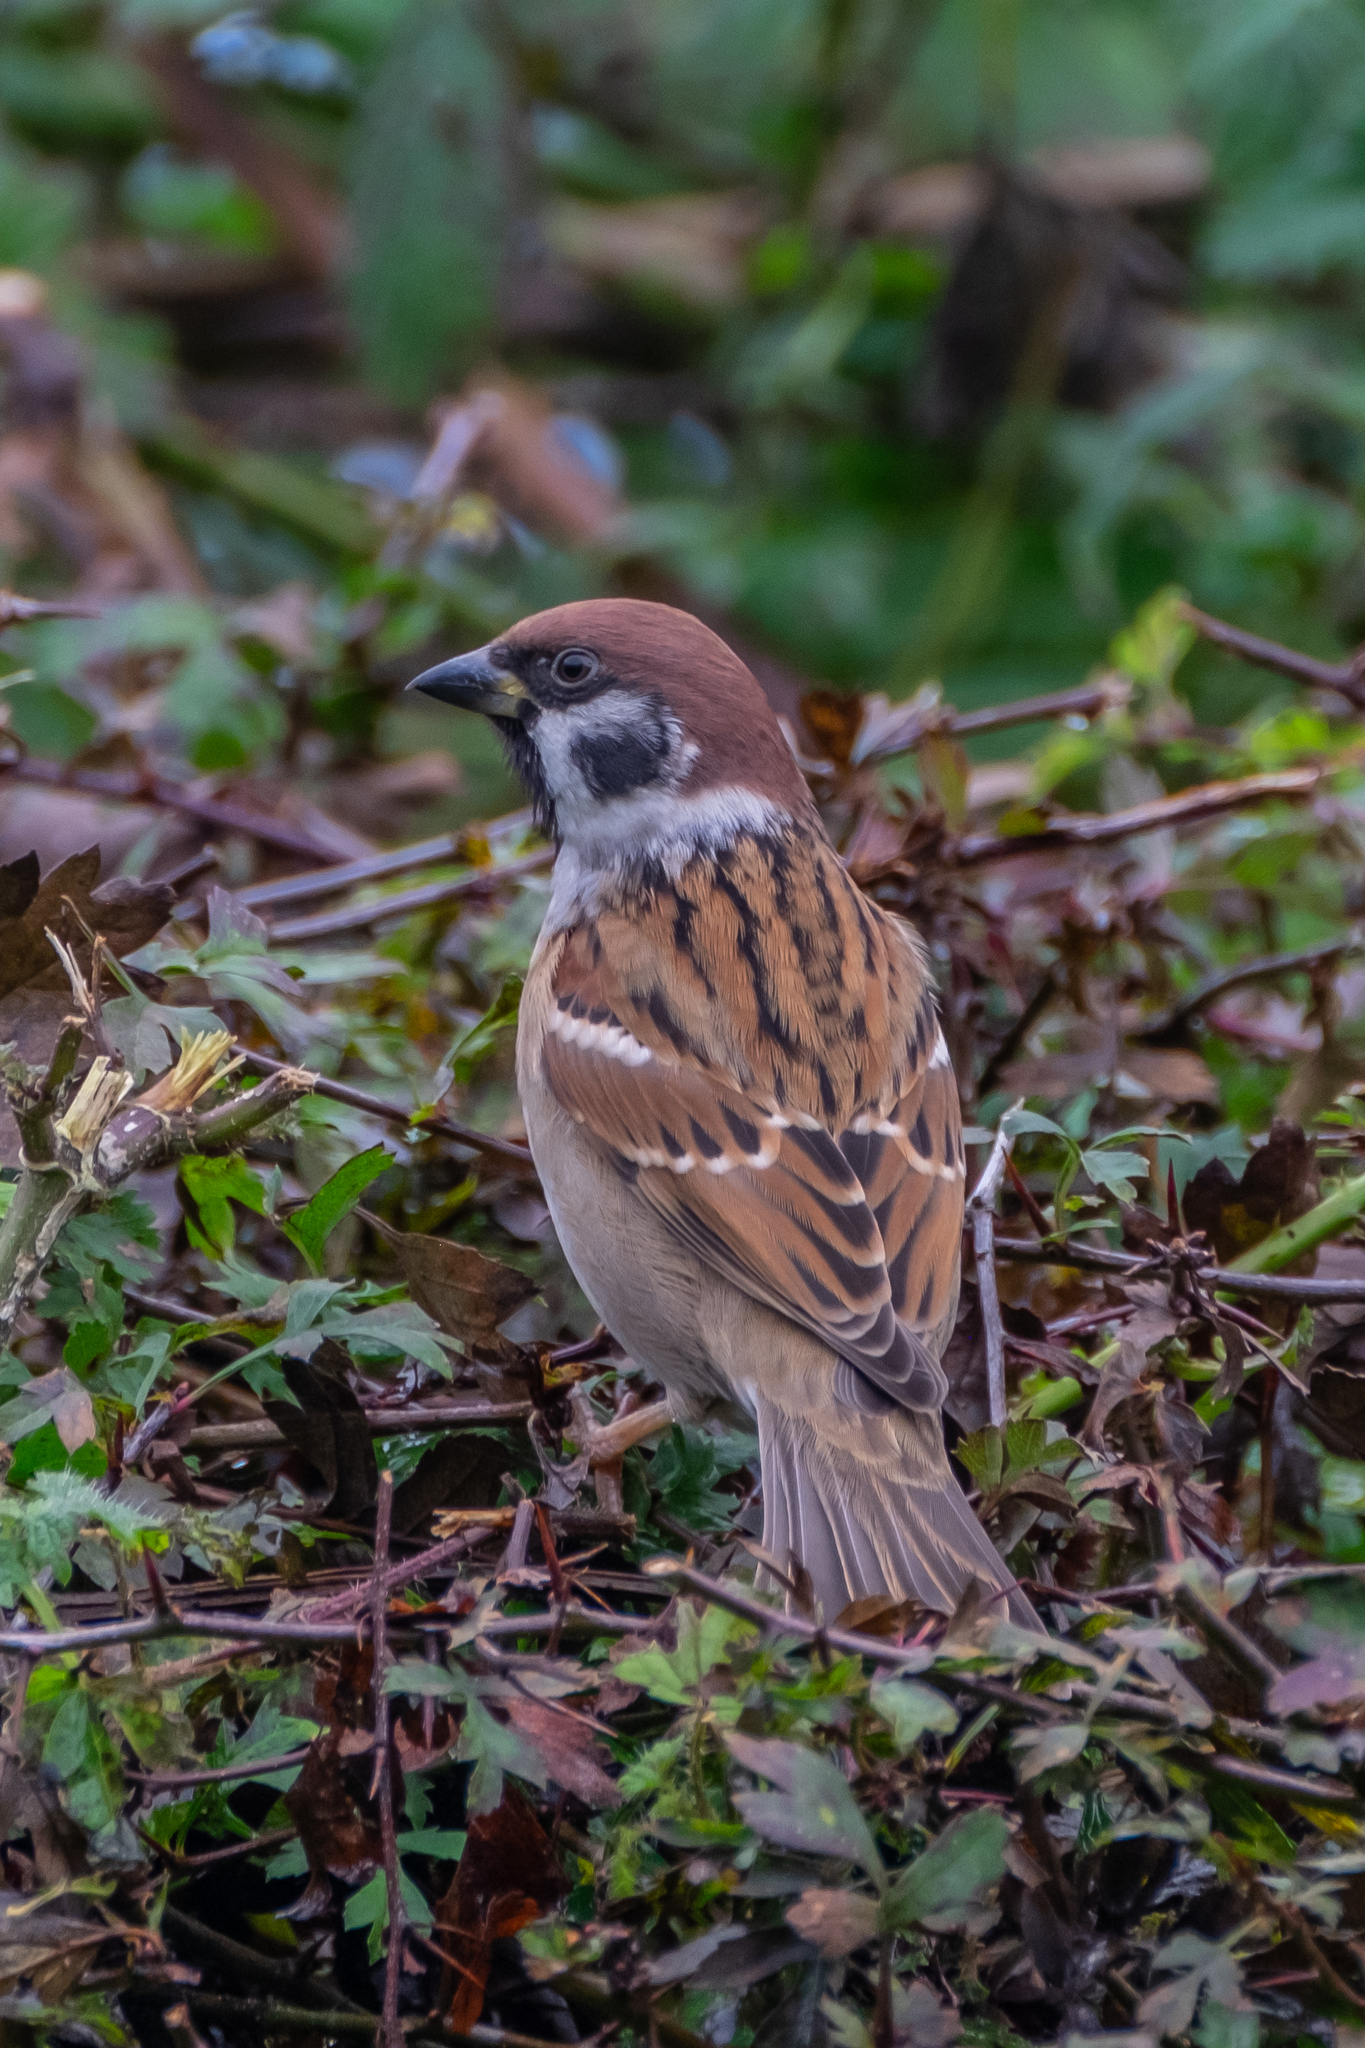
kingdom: Animalia
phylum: Chordata
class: Aves
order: Passeriformes
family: Passeridae
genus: Passer
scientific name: Passer montanus
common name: Eurasian tree sparrow
